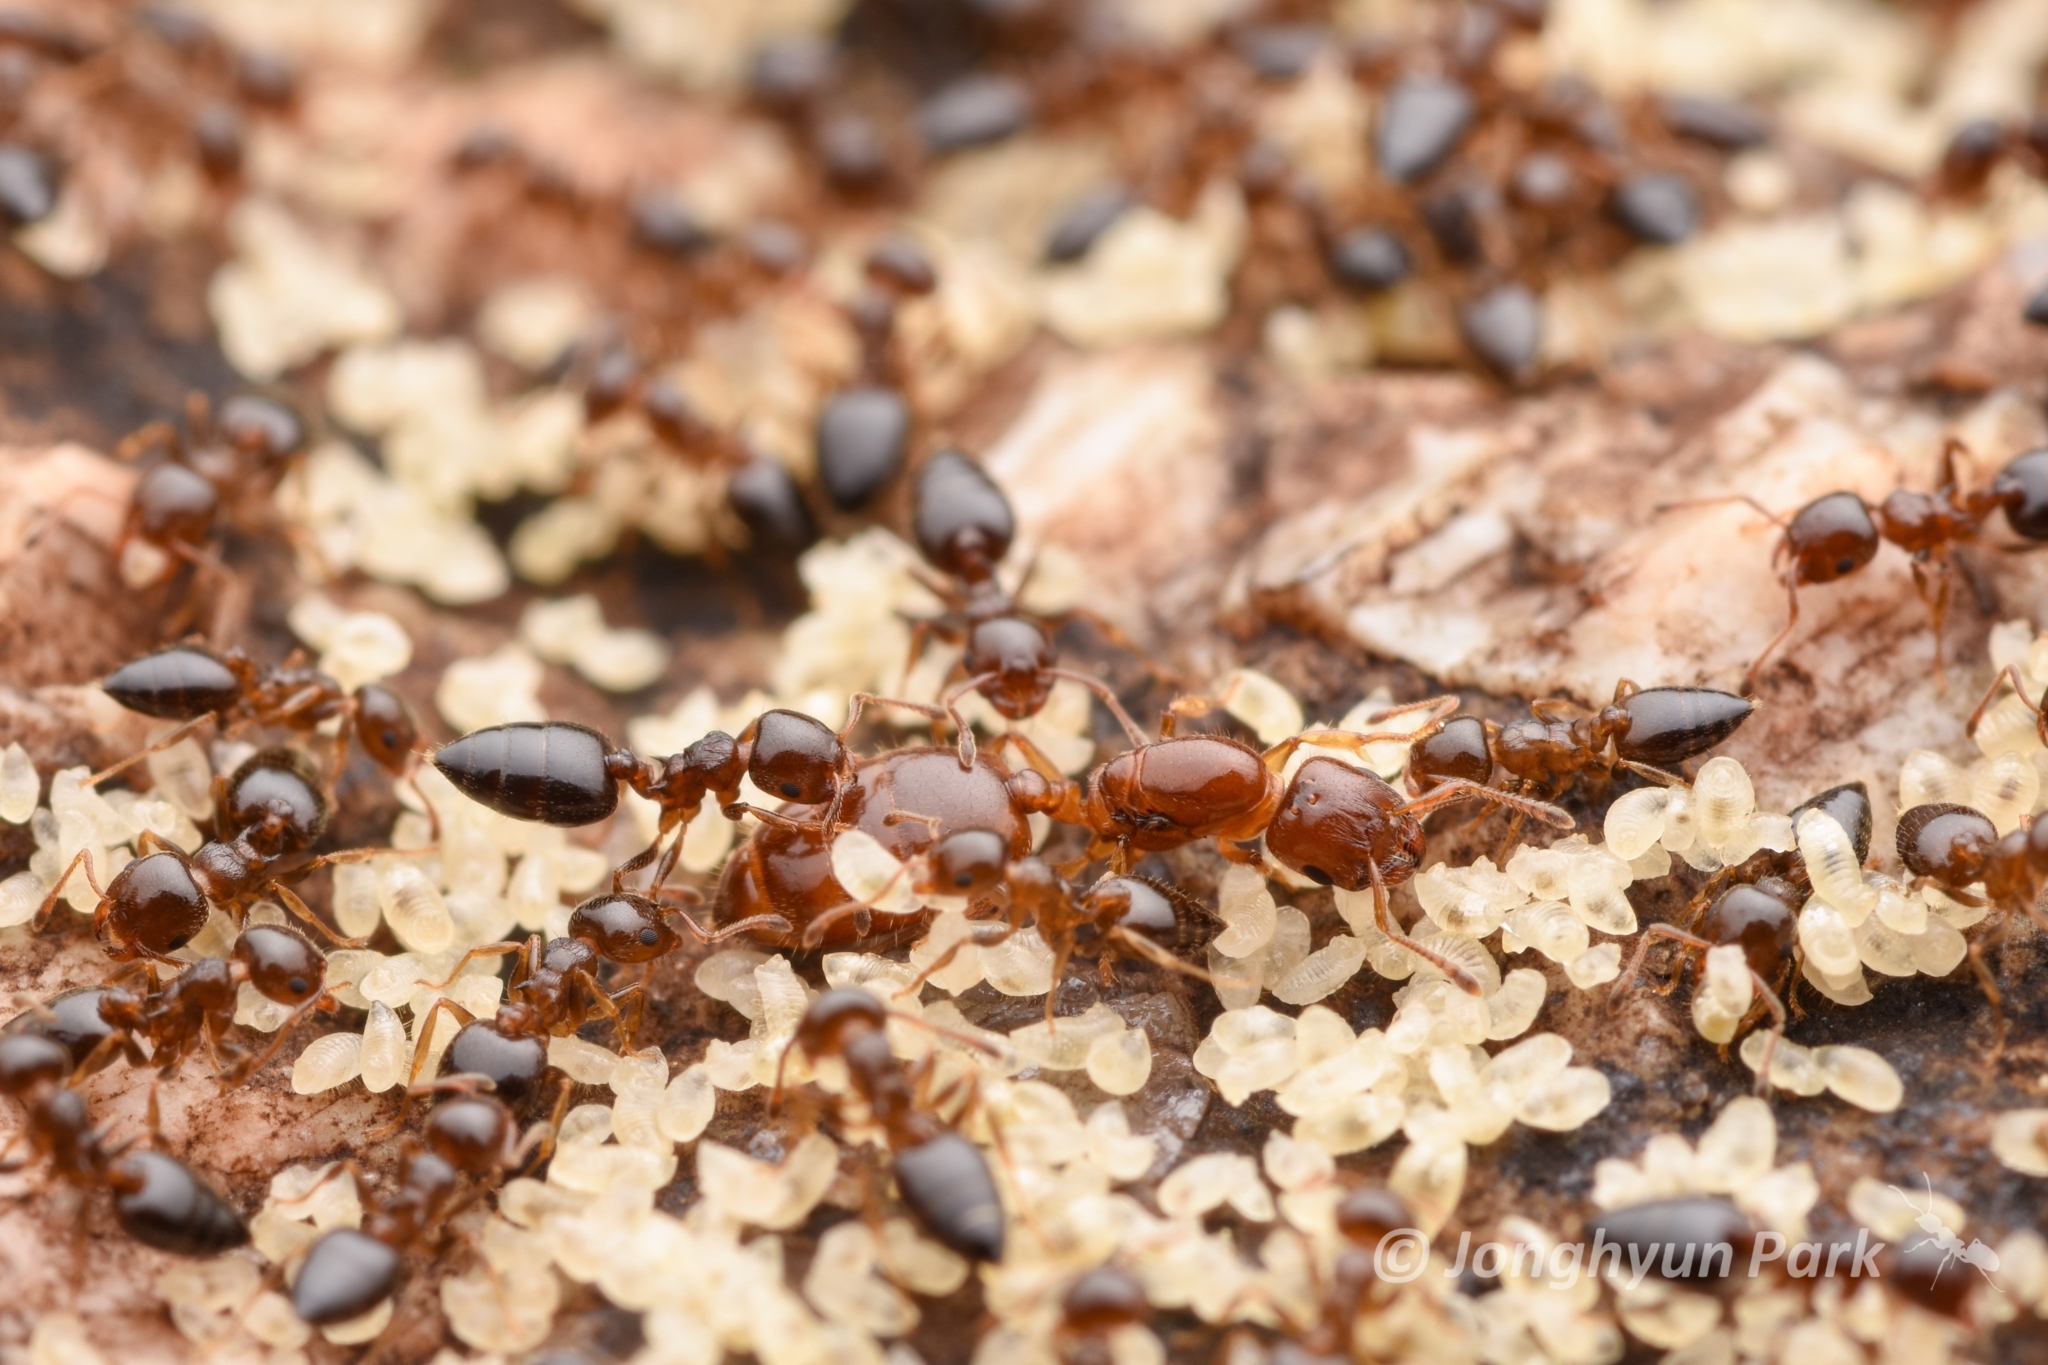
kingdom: Animalia
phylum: Arthropoda
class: Insecta
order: Hymenoptera
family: Formicidae
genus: Crematogaster
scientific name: Crematogaster
